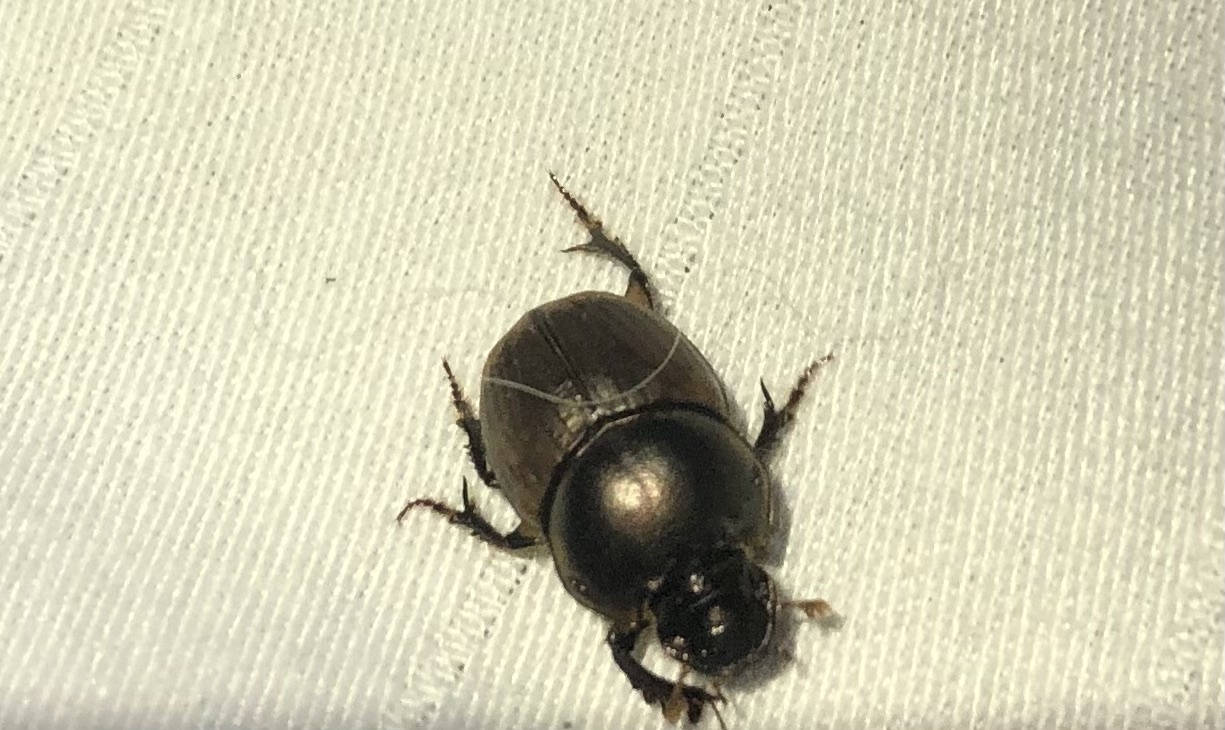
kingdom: Animalia
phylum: Arthropoda
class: Insecta
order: Coleoptera
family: Scarabaeidae
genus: Digitonthophagus
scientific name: Digitonthophagus gazella
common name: Brown dung beetle
